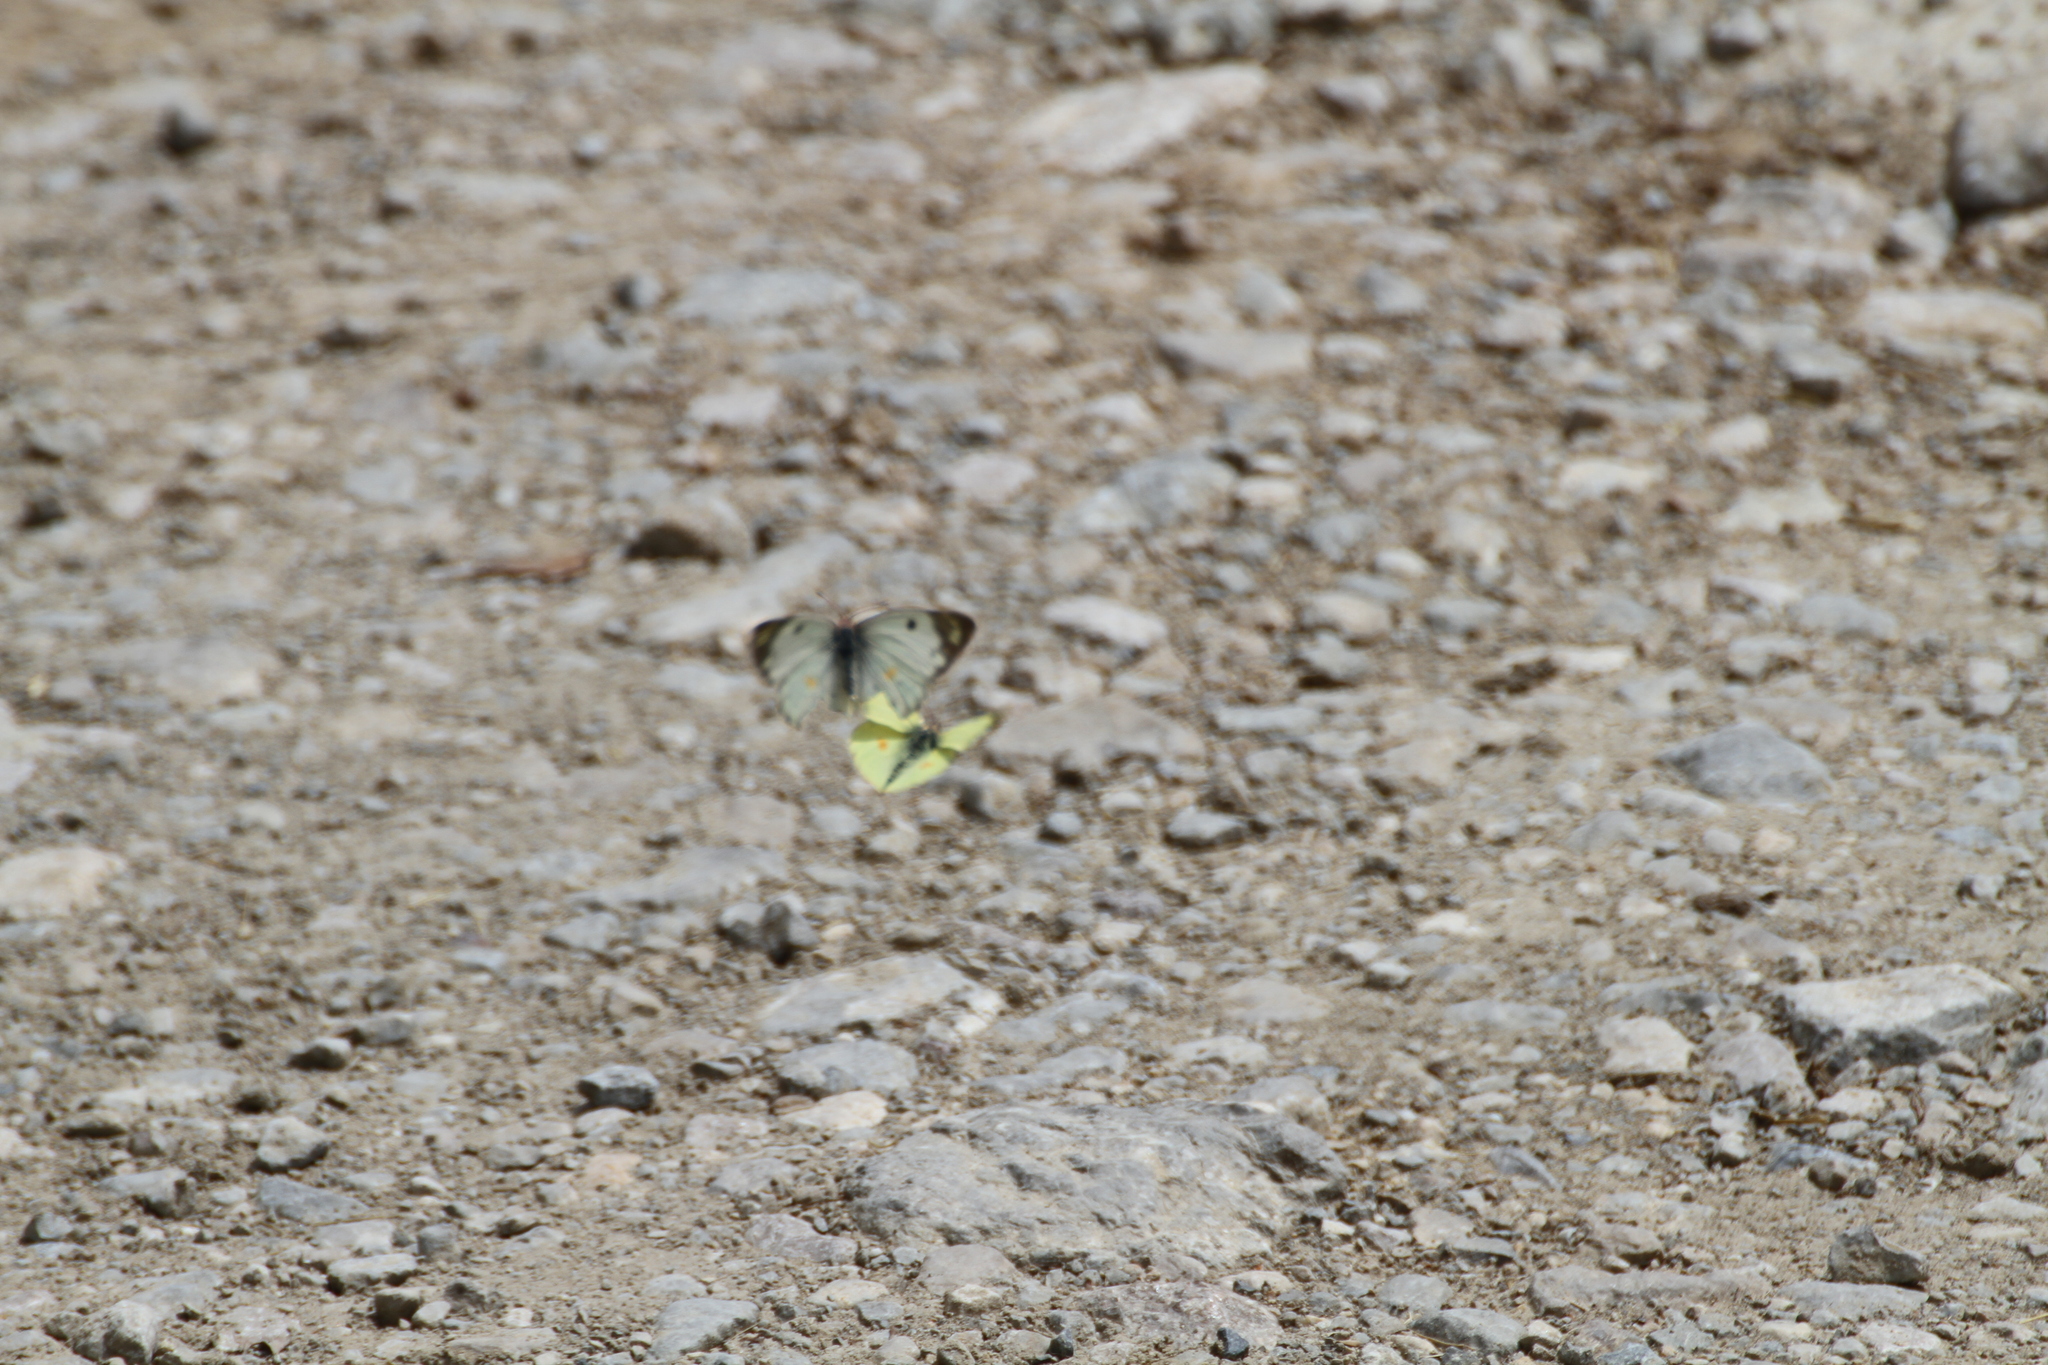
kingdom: Animalia
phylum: Arthropoda
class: Insecta
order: Lepidoptera
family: Pieridae
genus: Colias
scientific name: Colias alfacariensis
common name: Berger's clouded yellow
